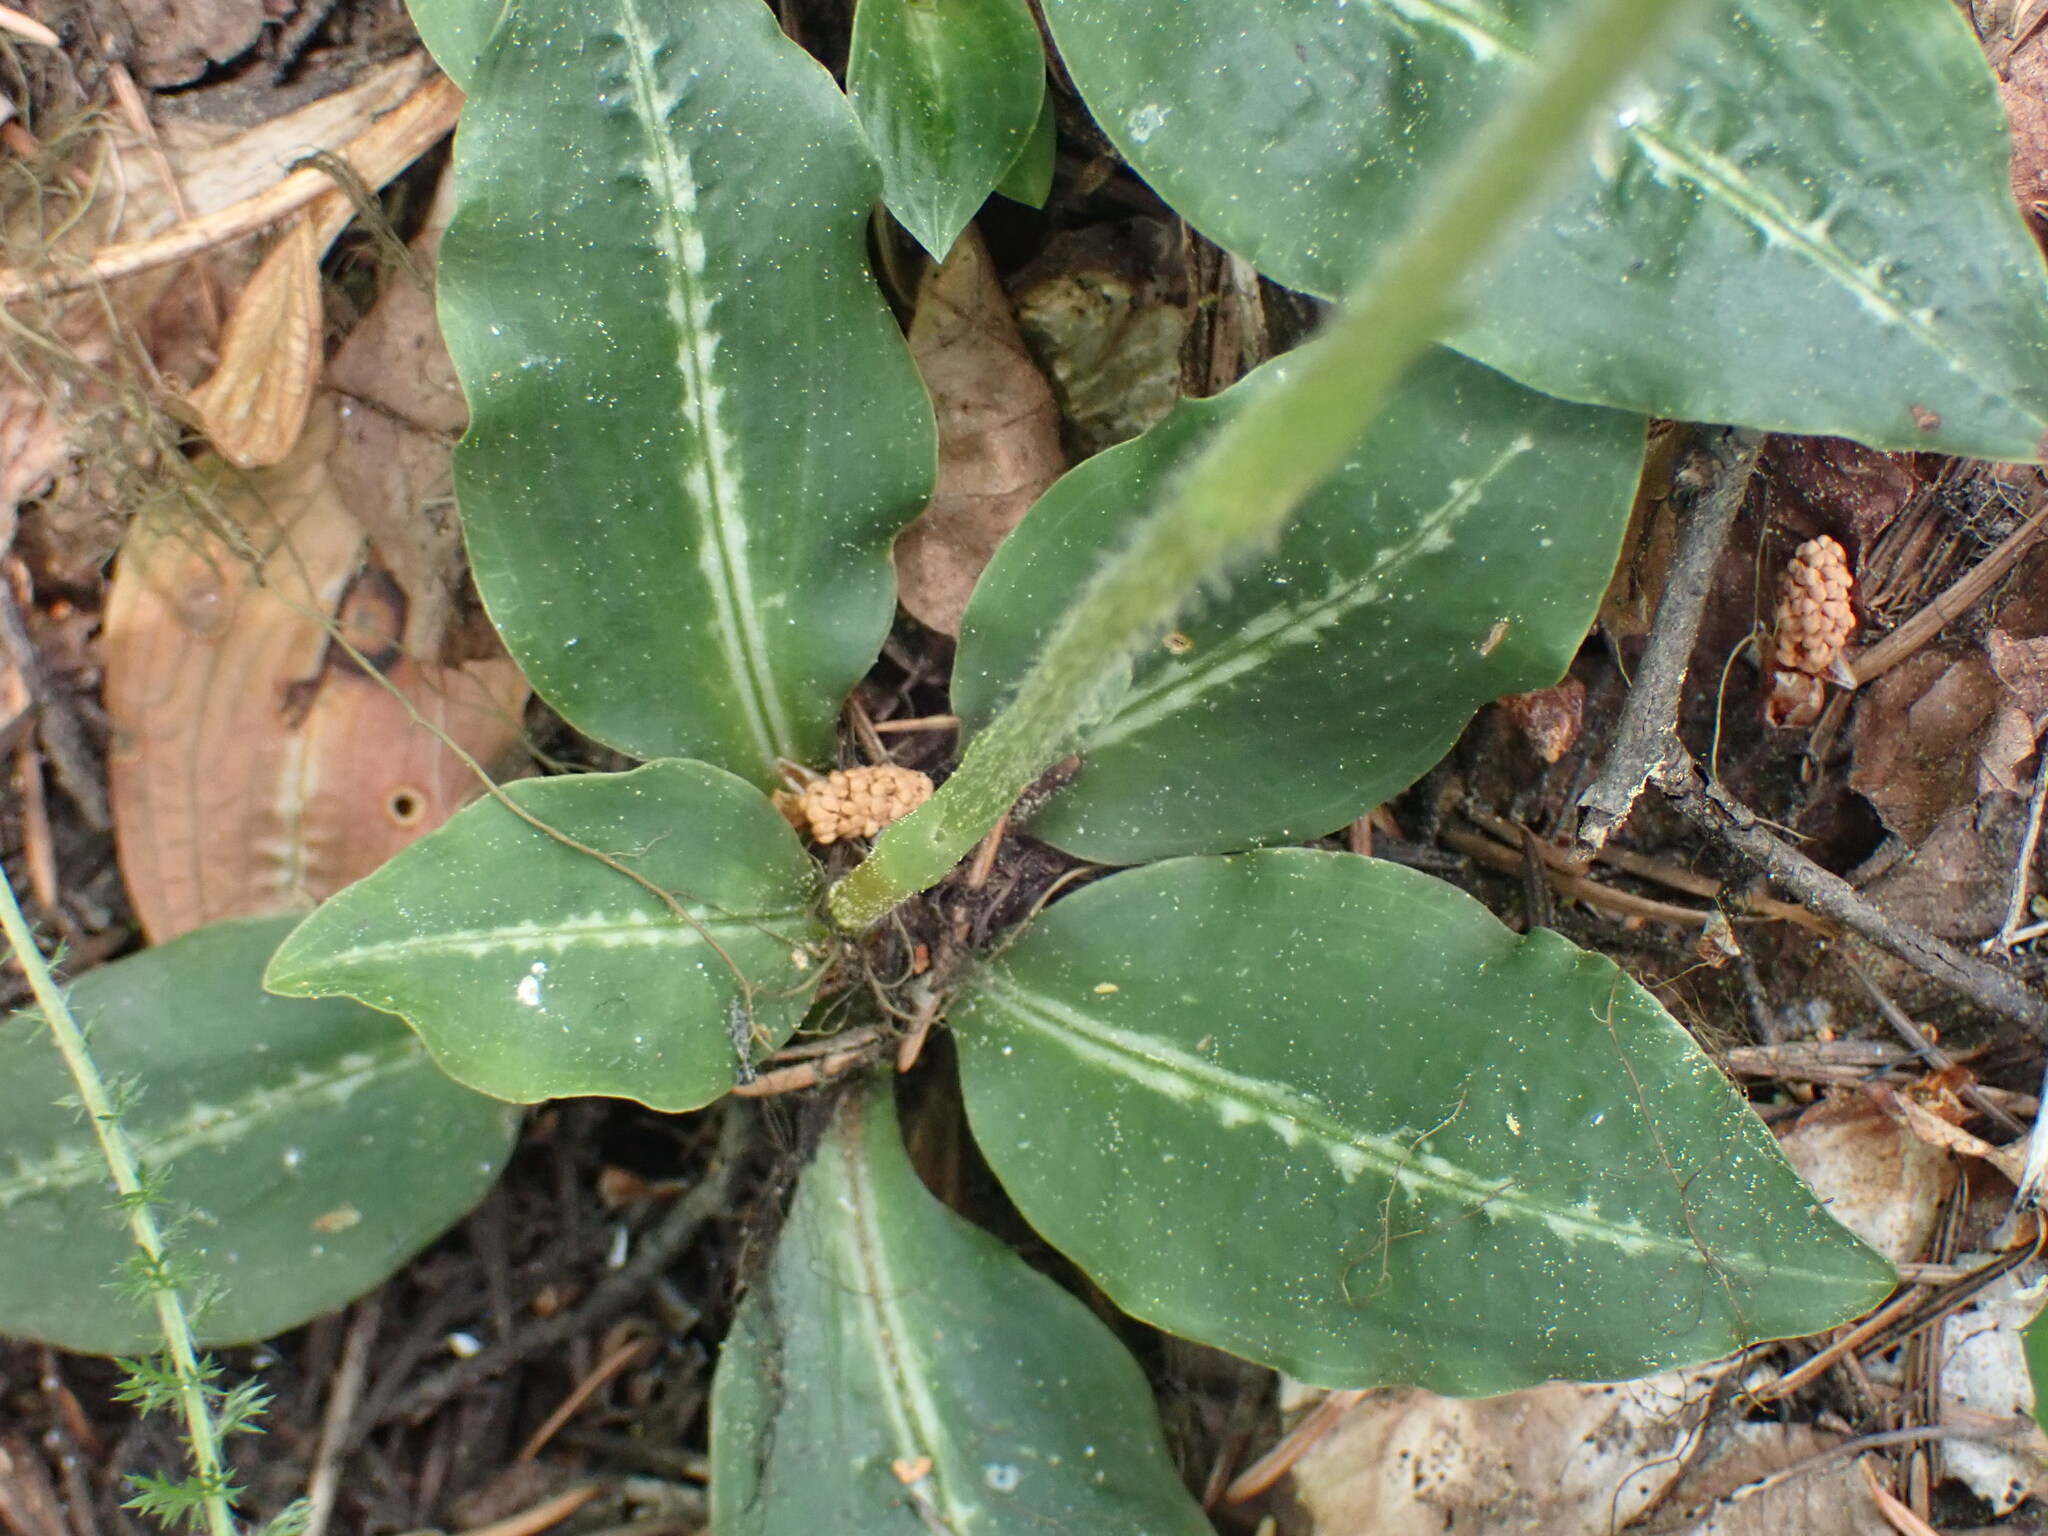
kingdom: Plantae
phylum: Tracheophyta
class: Liliopsida
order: Asparagales
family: Orchidaceae
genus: Goodyera
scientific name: Goodyera oblongifolia
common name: Giant rattlesnake-plantain
